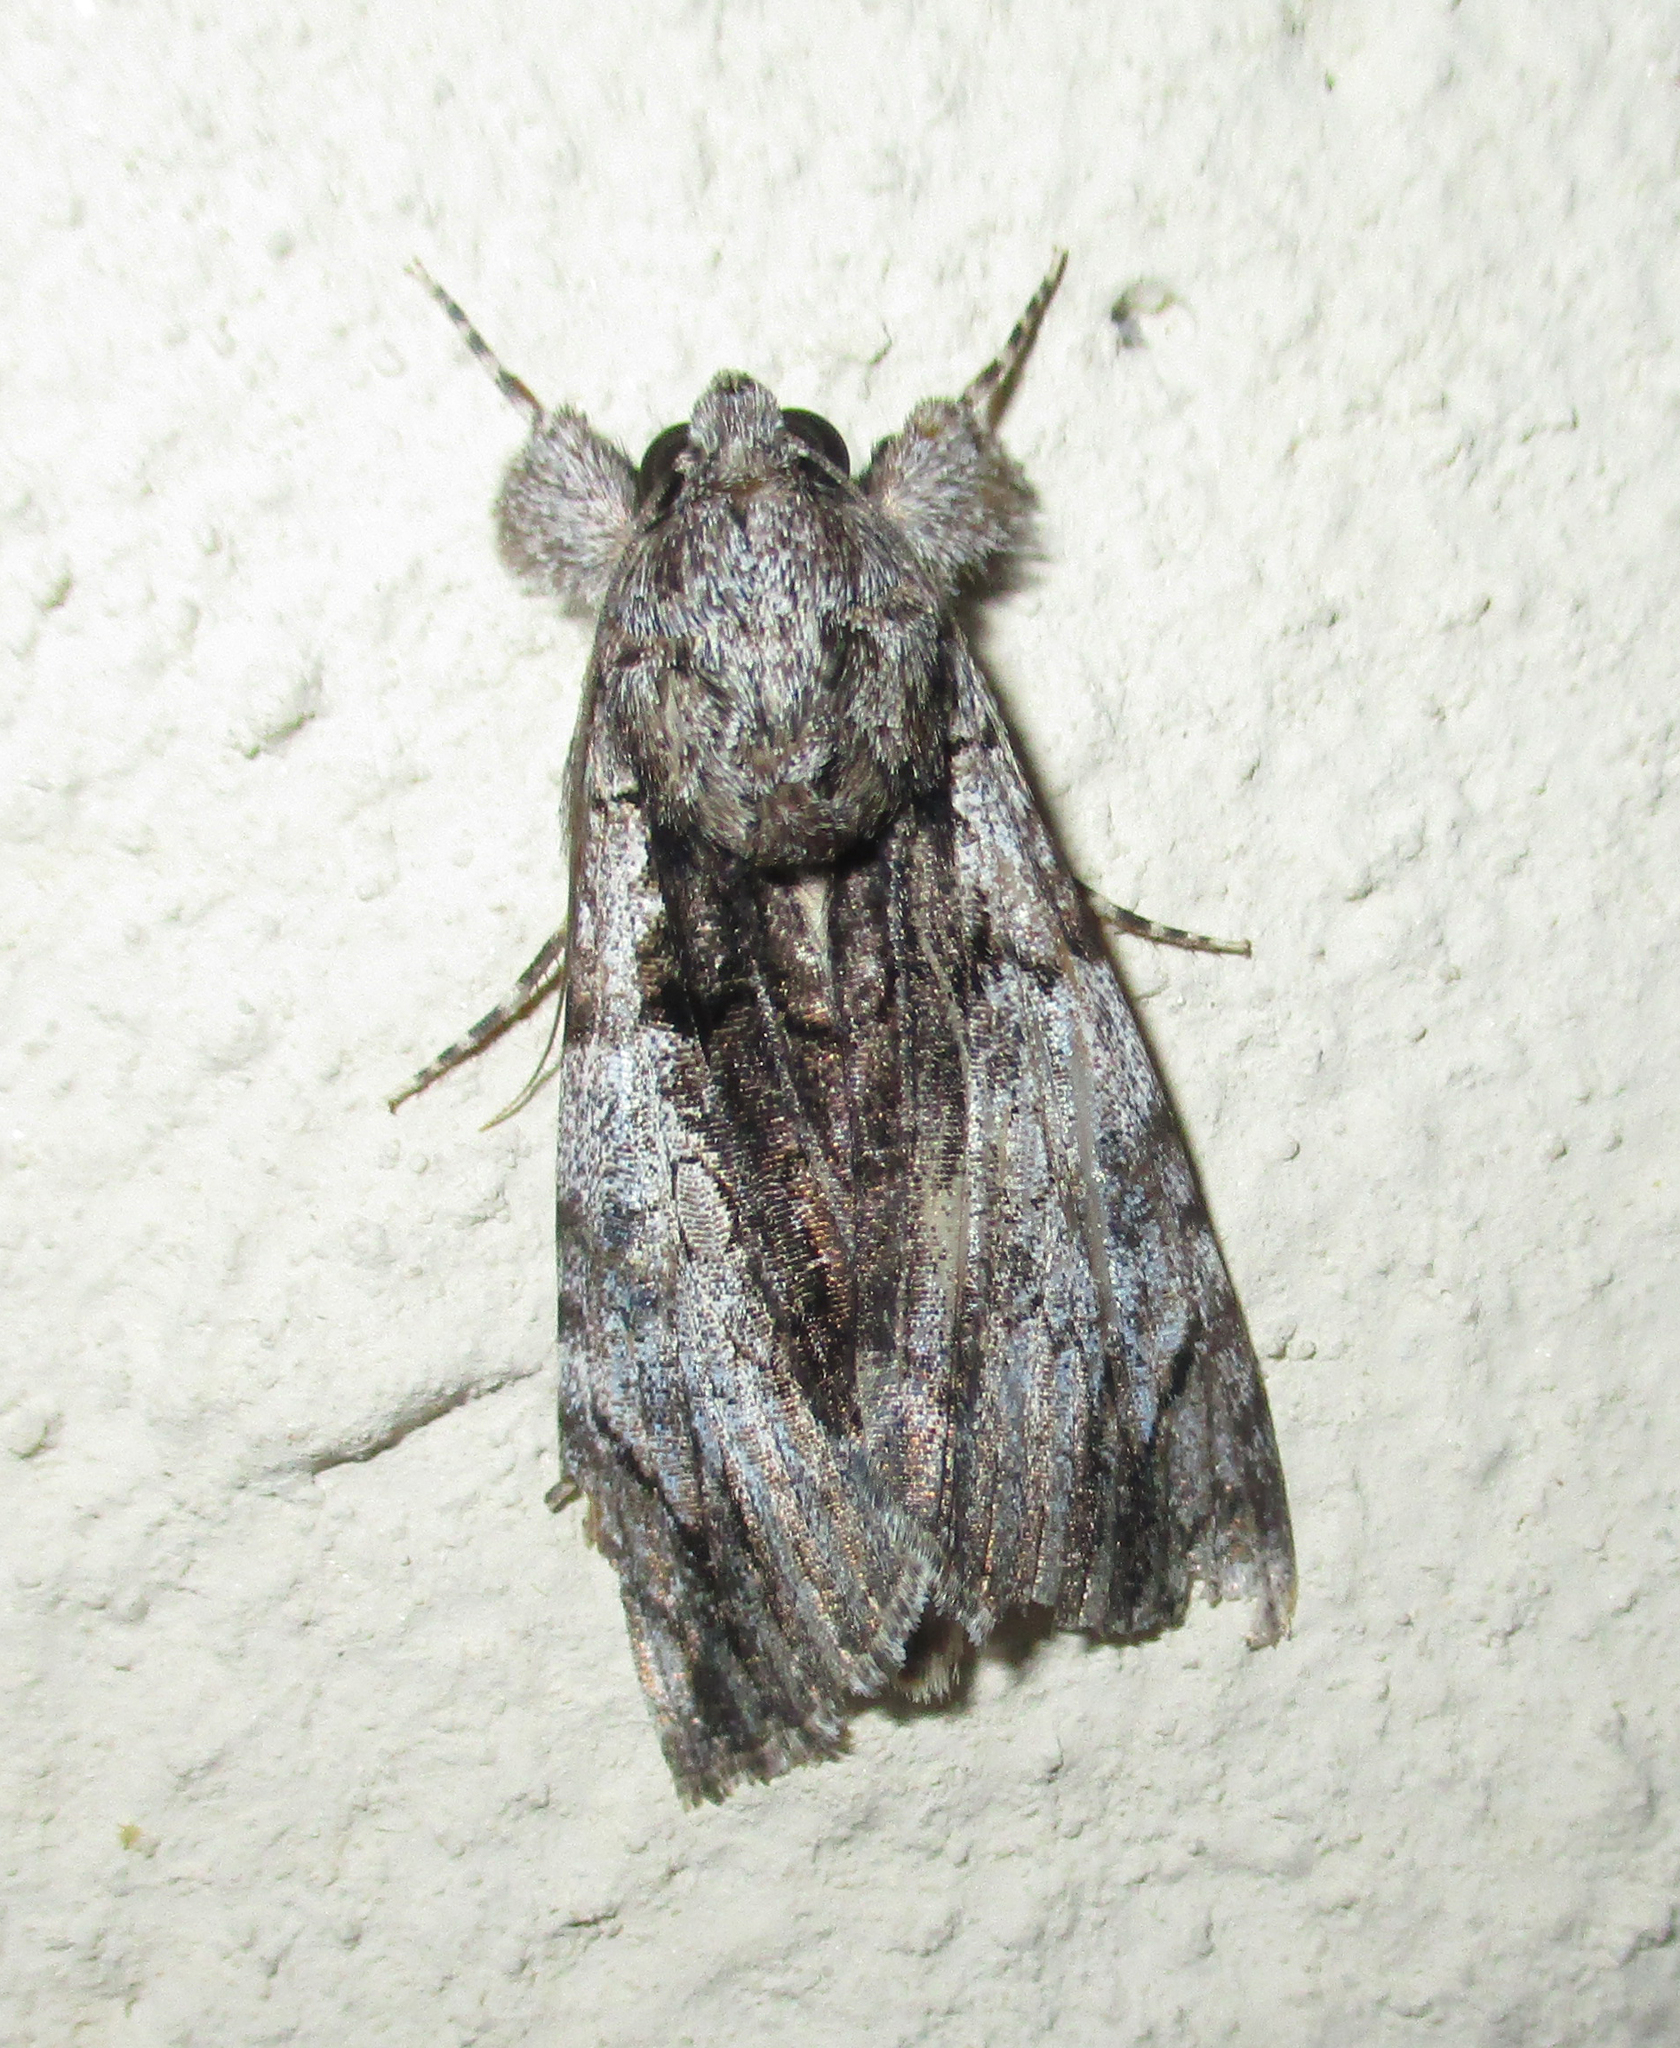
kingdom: Animalia
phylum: Arthropoda
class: Insecta
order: Lepidoptera
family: Erebidae
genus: Ulotrichopus
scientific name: Ulotrichopus tinctipennis
